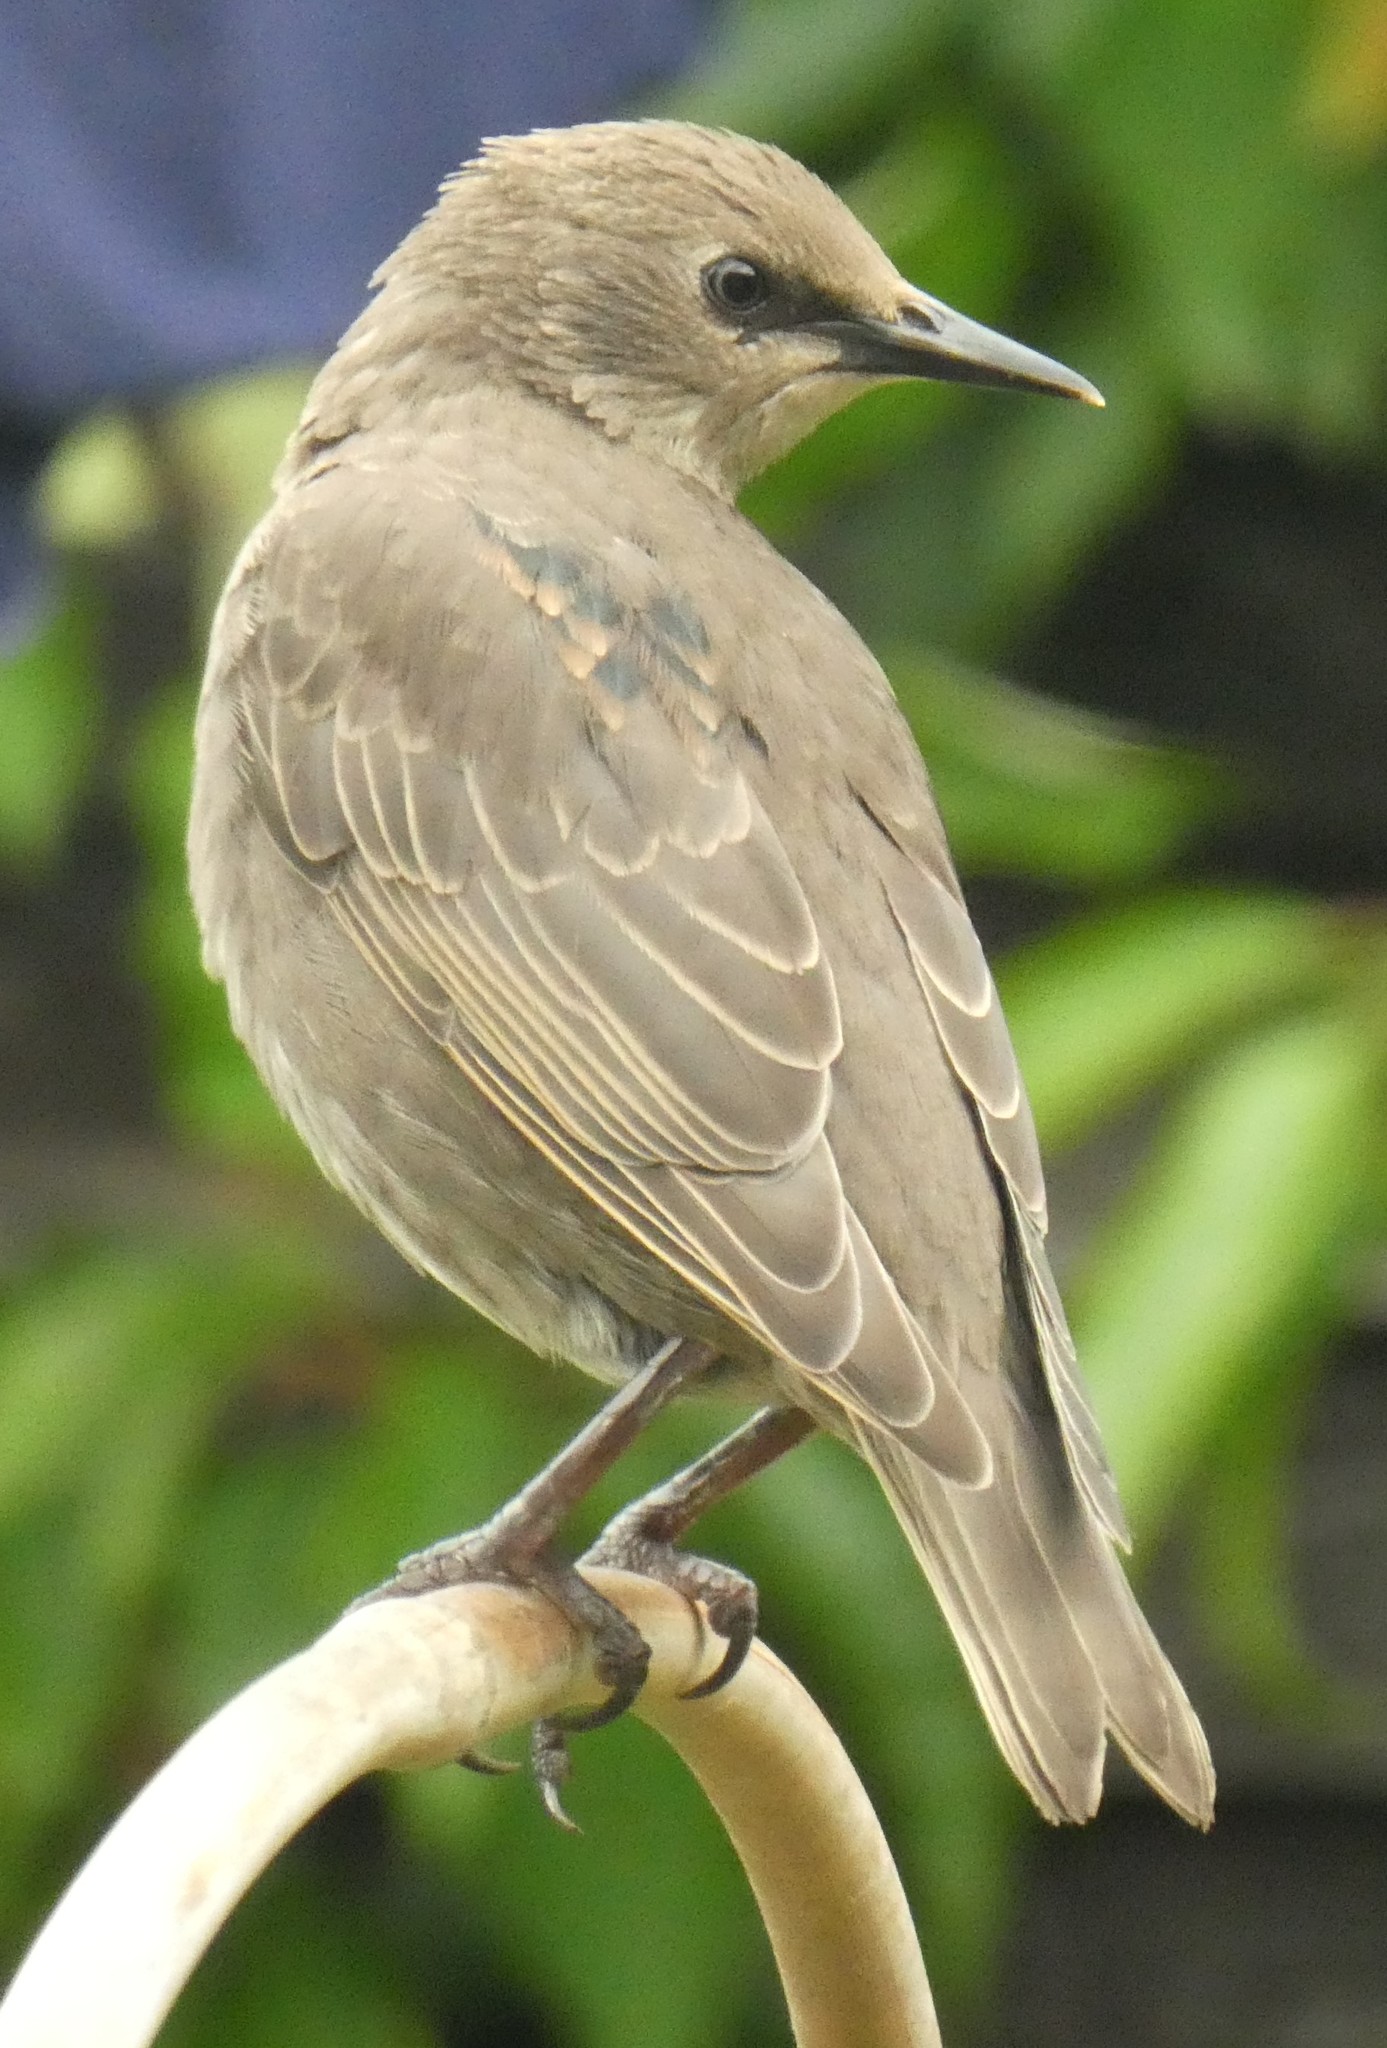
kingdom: Animalia
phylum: Chordata
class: Aves
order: Passeriformes
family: Sturnidae
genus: Sturnus
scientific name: Sturnus vulgaris
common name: Common starling
